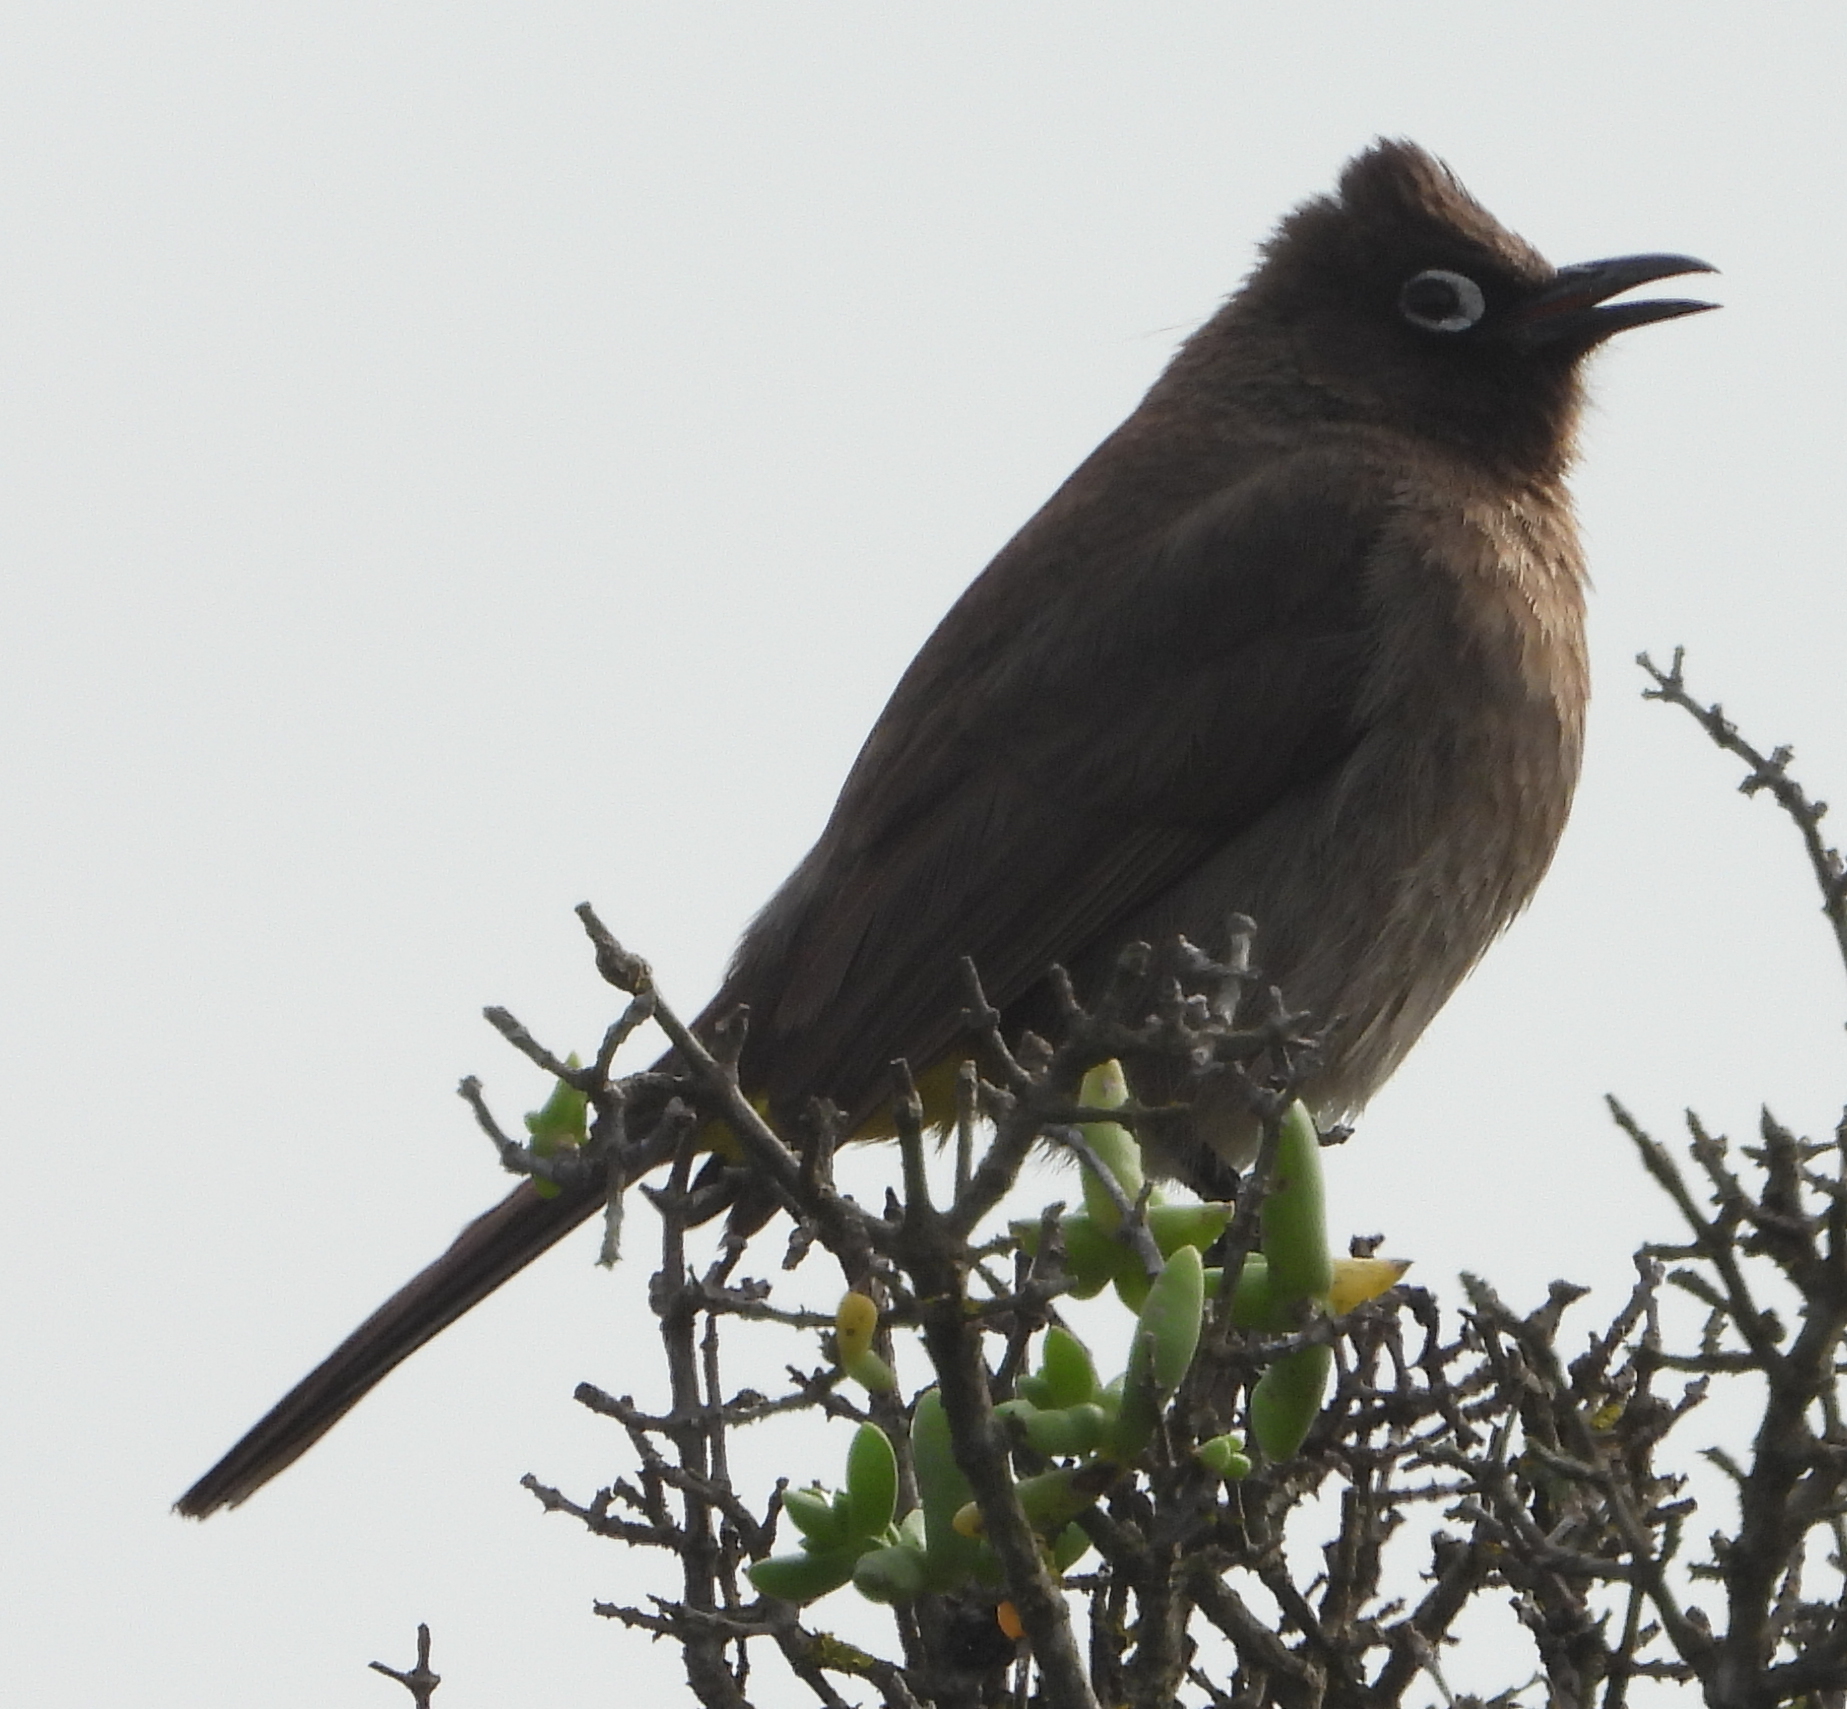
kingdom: Animalia
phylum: Chordata
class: Aves
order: Passeriformes
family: Pycnonotidae
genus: Pycnonotus
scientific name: Pycnonotus capensis
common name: Cape bulbul
